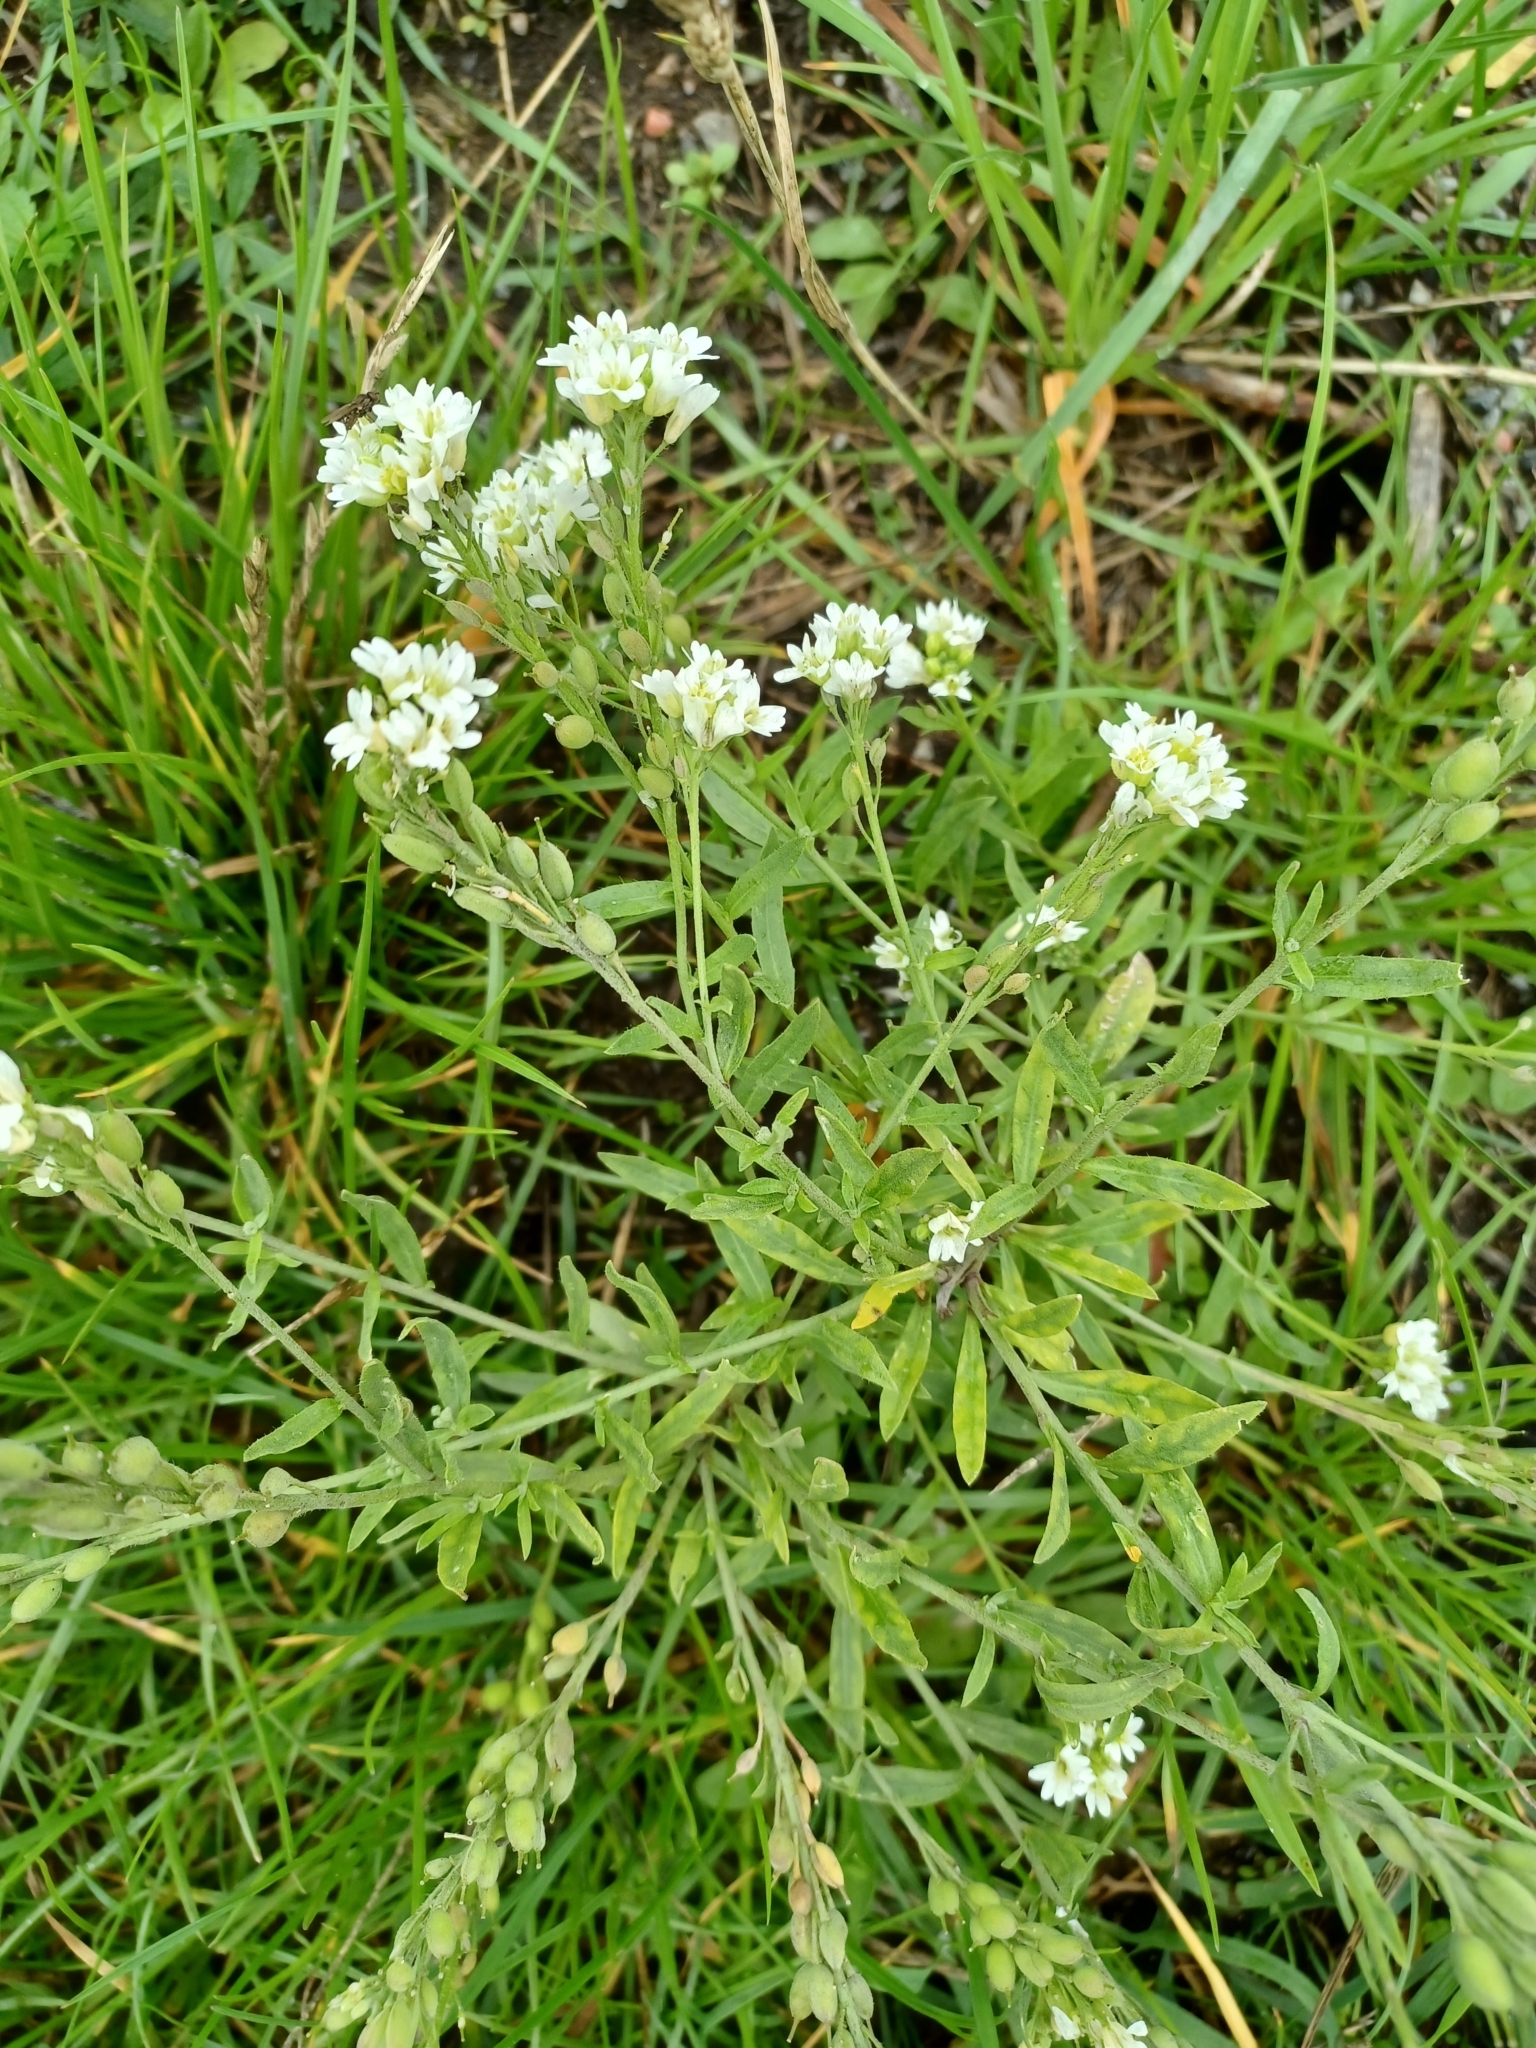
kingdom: Plantae
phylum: Tracheophyta
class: Magnoliopsida
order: Brassicales
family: Brassicaceae
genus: Berteroa
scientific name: Berteroa incana
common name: Hoary alison
